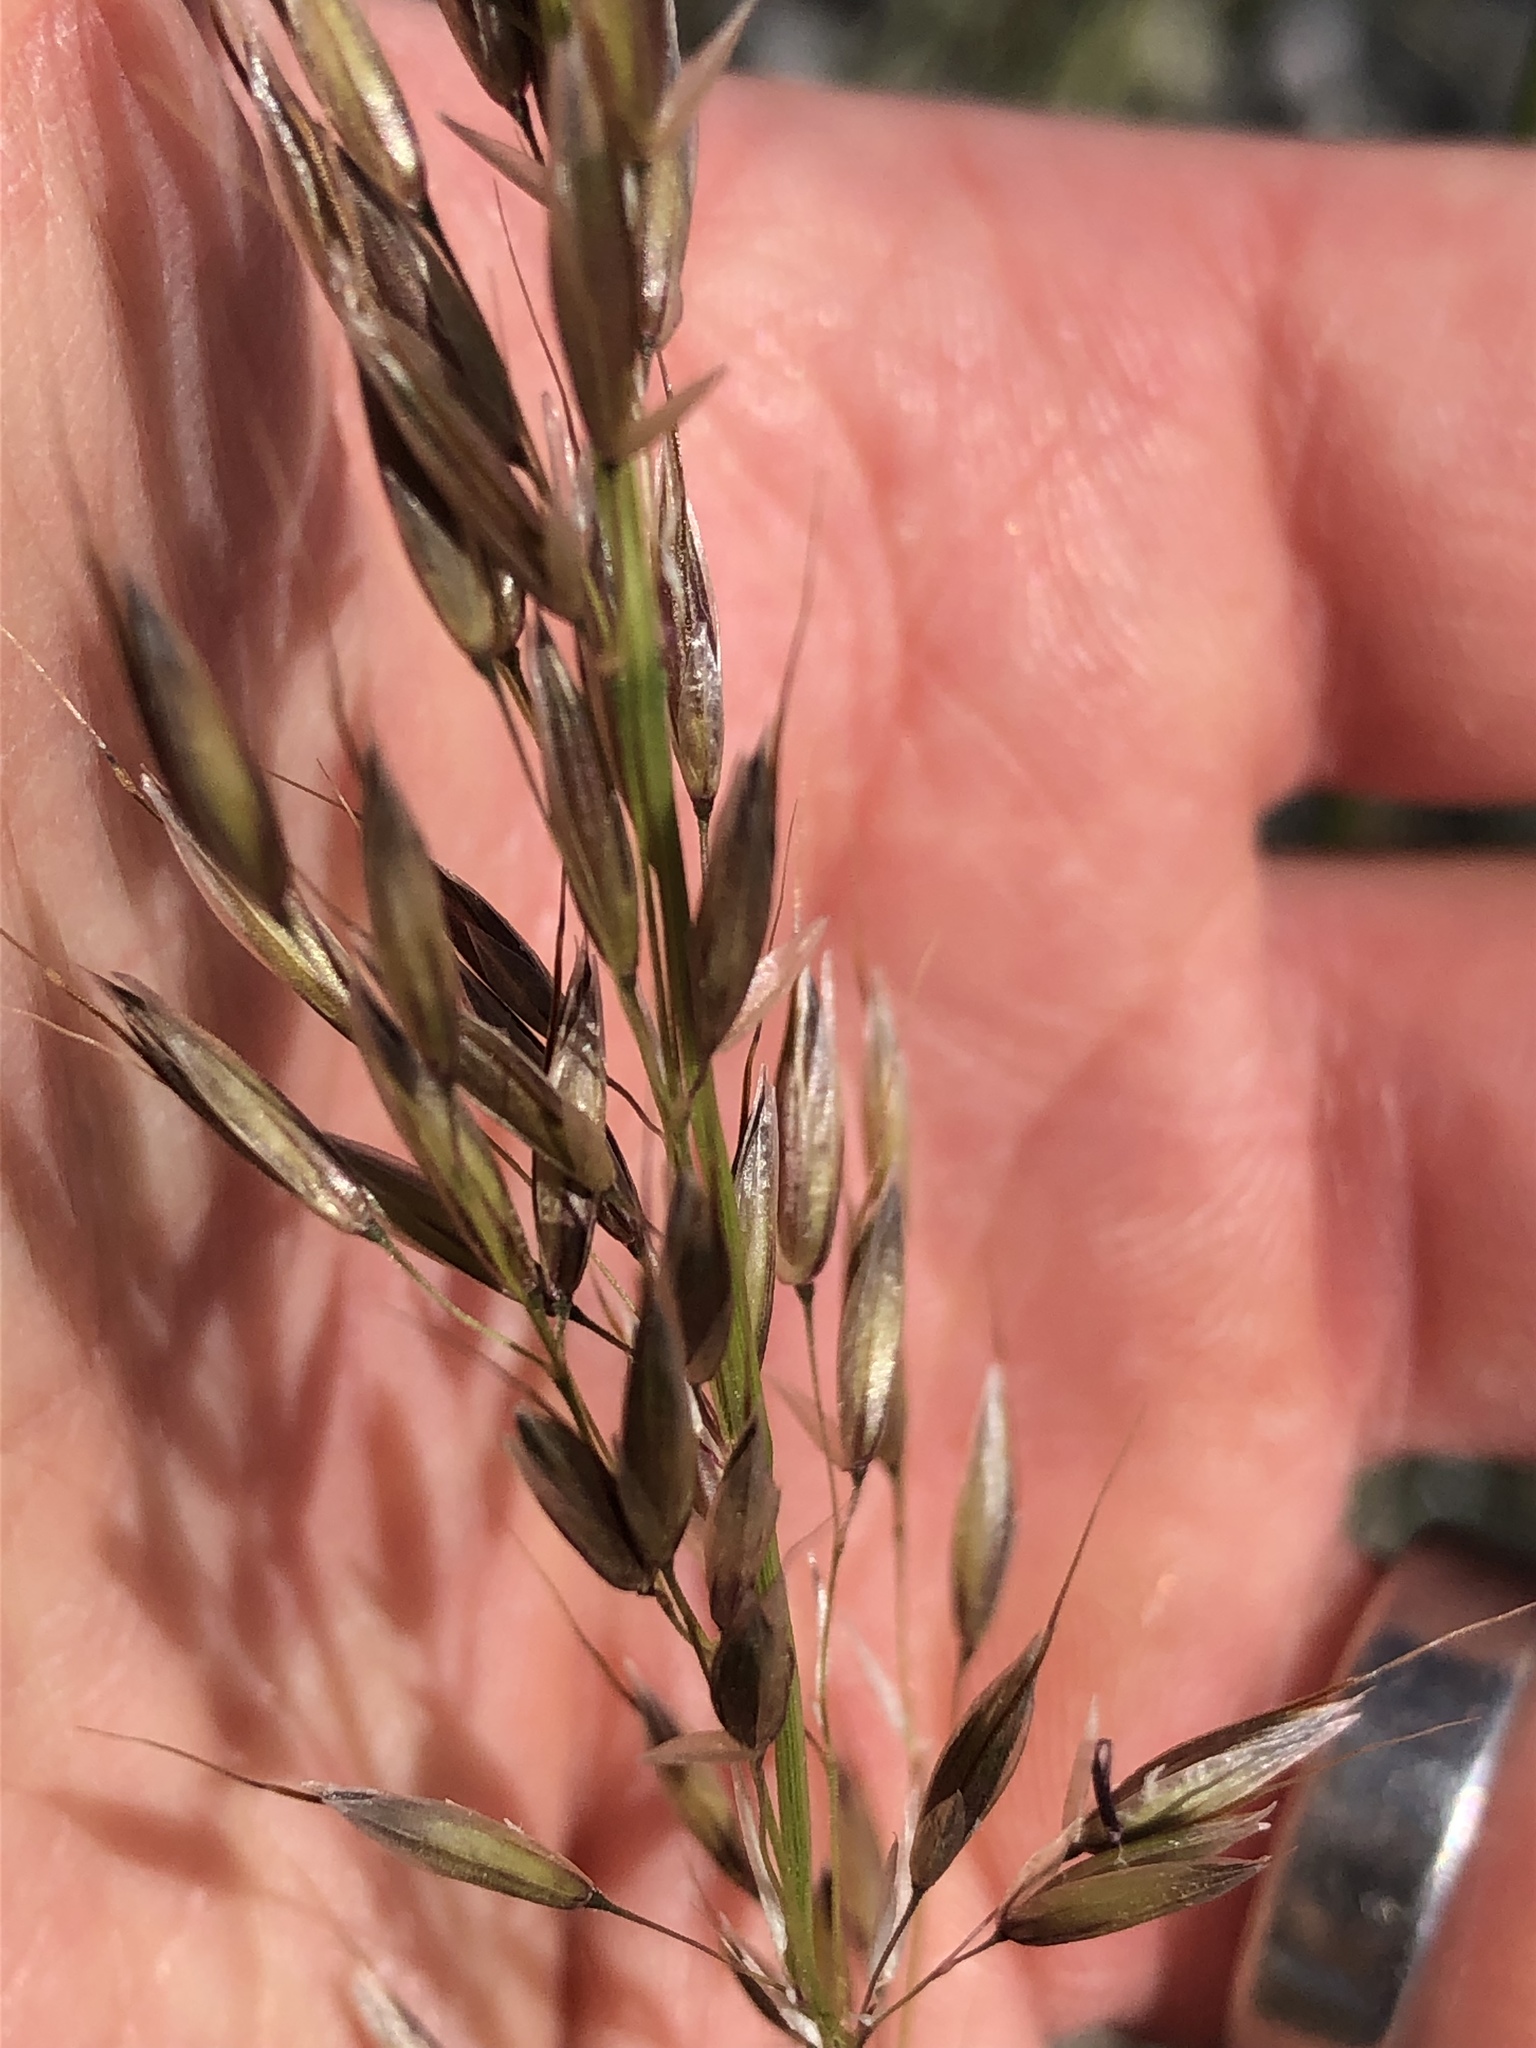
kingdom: Plantae
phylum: Tracheophyta
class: Liliopsida
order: Poales
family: Poaceae
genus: Arrhenatherum
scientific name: Arrhenatherum elatius
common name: Tall oatgrass
